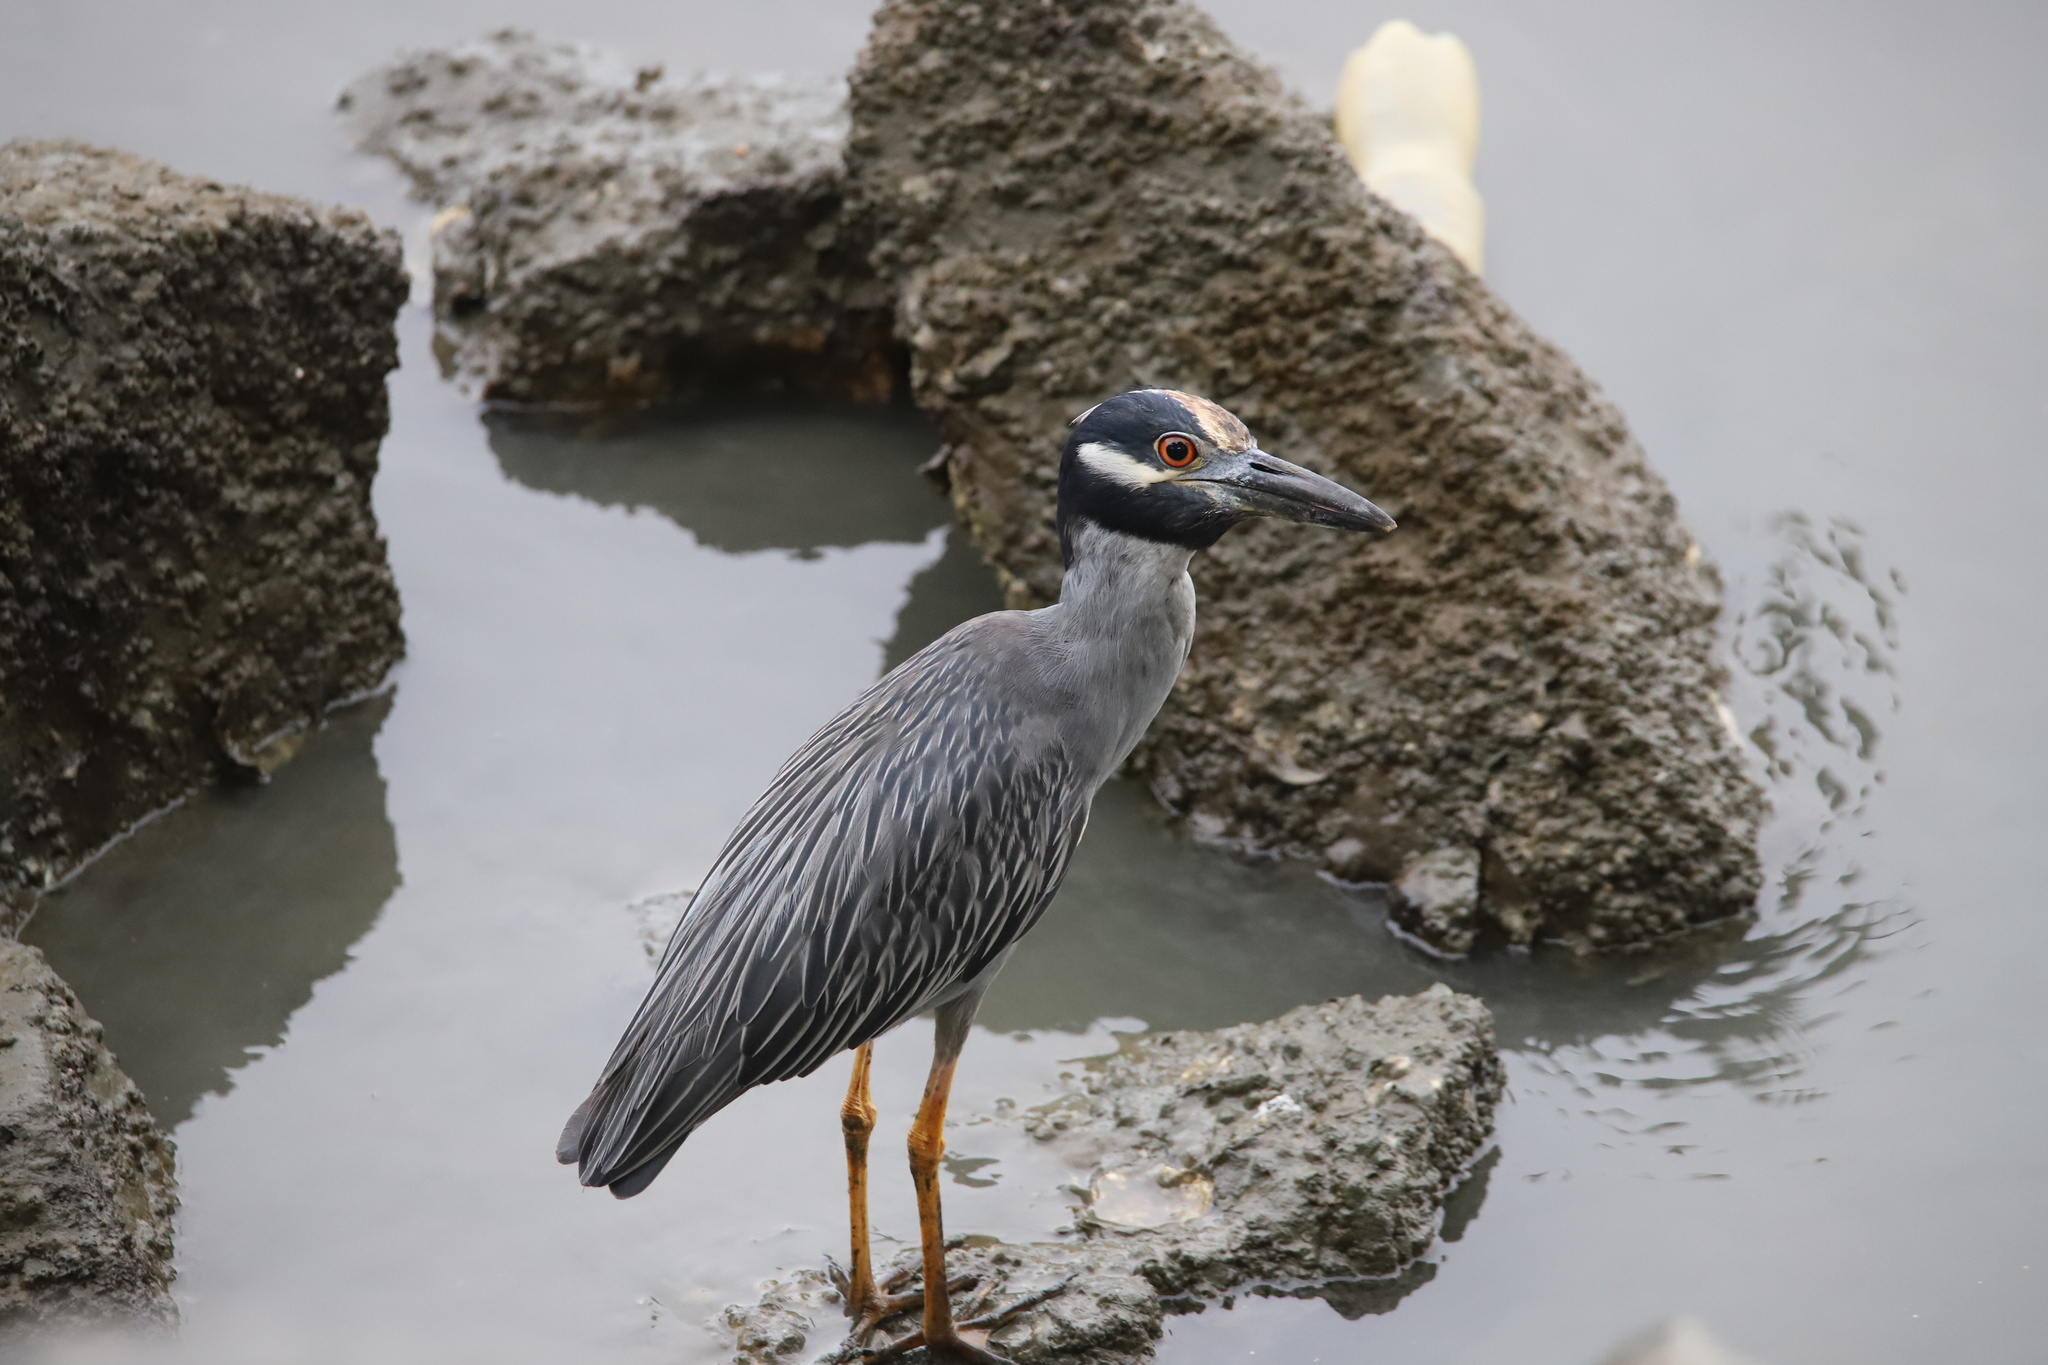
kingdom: Animalia
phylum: Chordata
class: Aves
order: Pelecaniformes
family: Ardeidae
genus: Nyctanassa
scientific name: Nyctanassa violacea
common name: Yellow-crowned night heron
